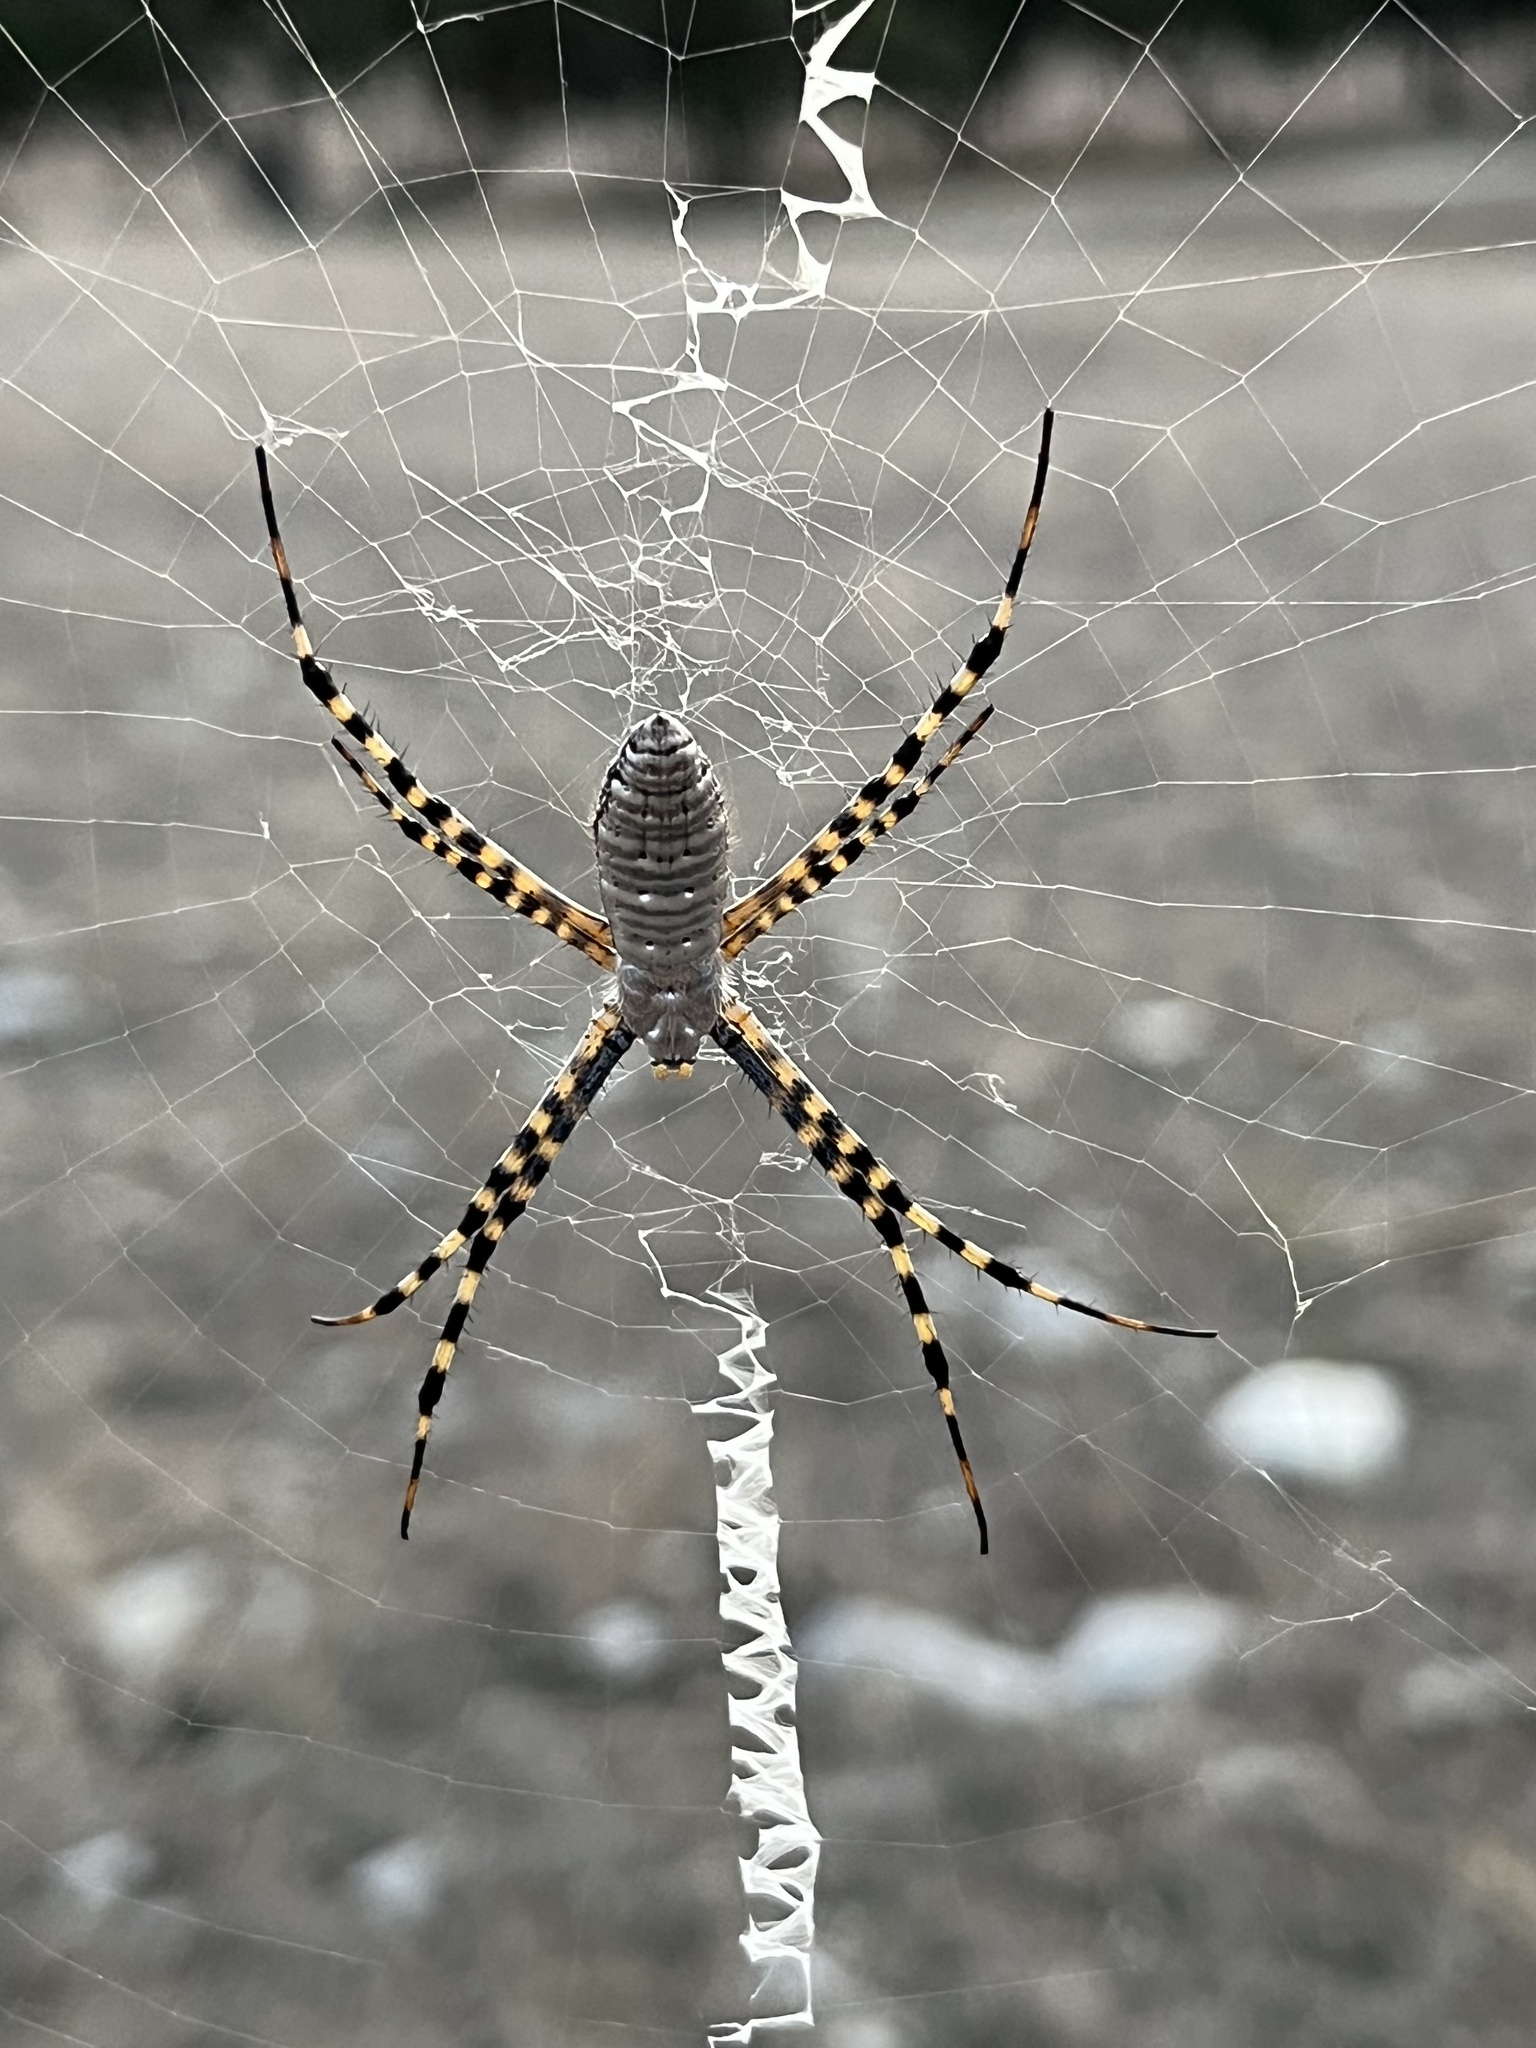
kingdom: Animalia
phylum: Arthropoda
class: Arachnida
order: Araneae
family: Araneidae
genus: Argiope
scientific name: Argiope trifasciata
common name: Banded garden spider
